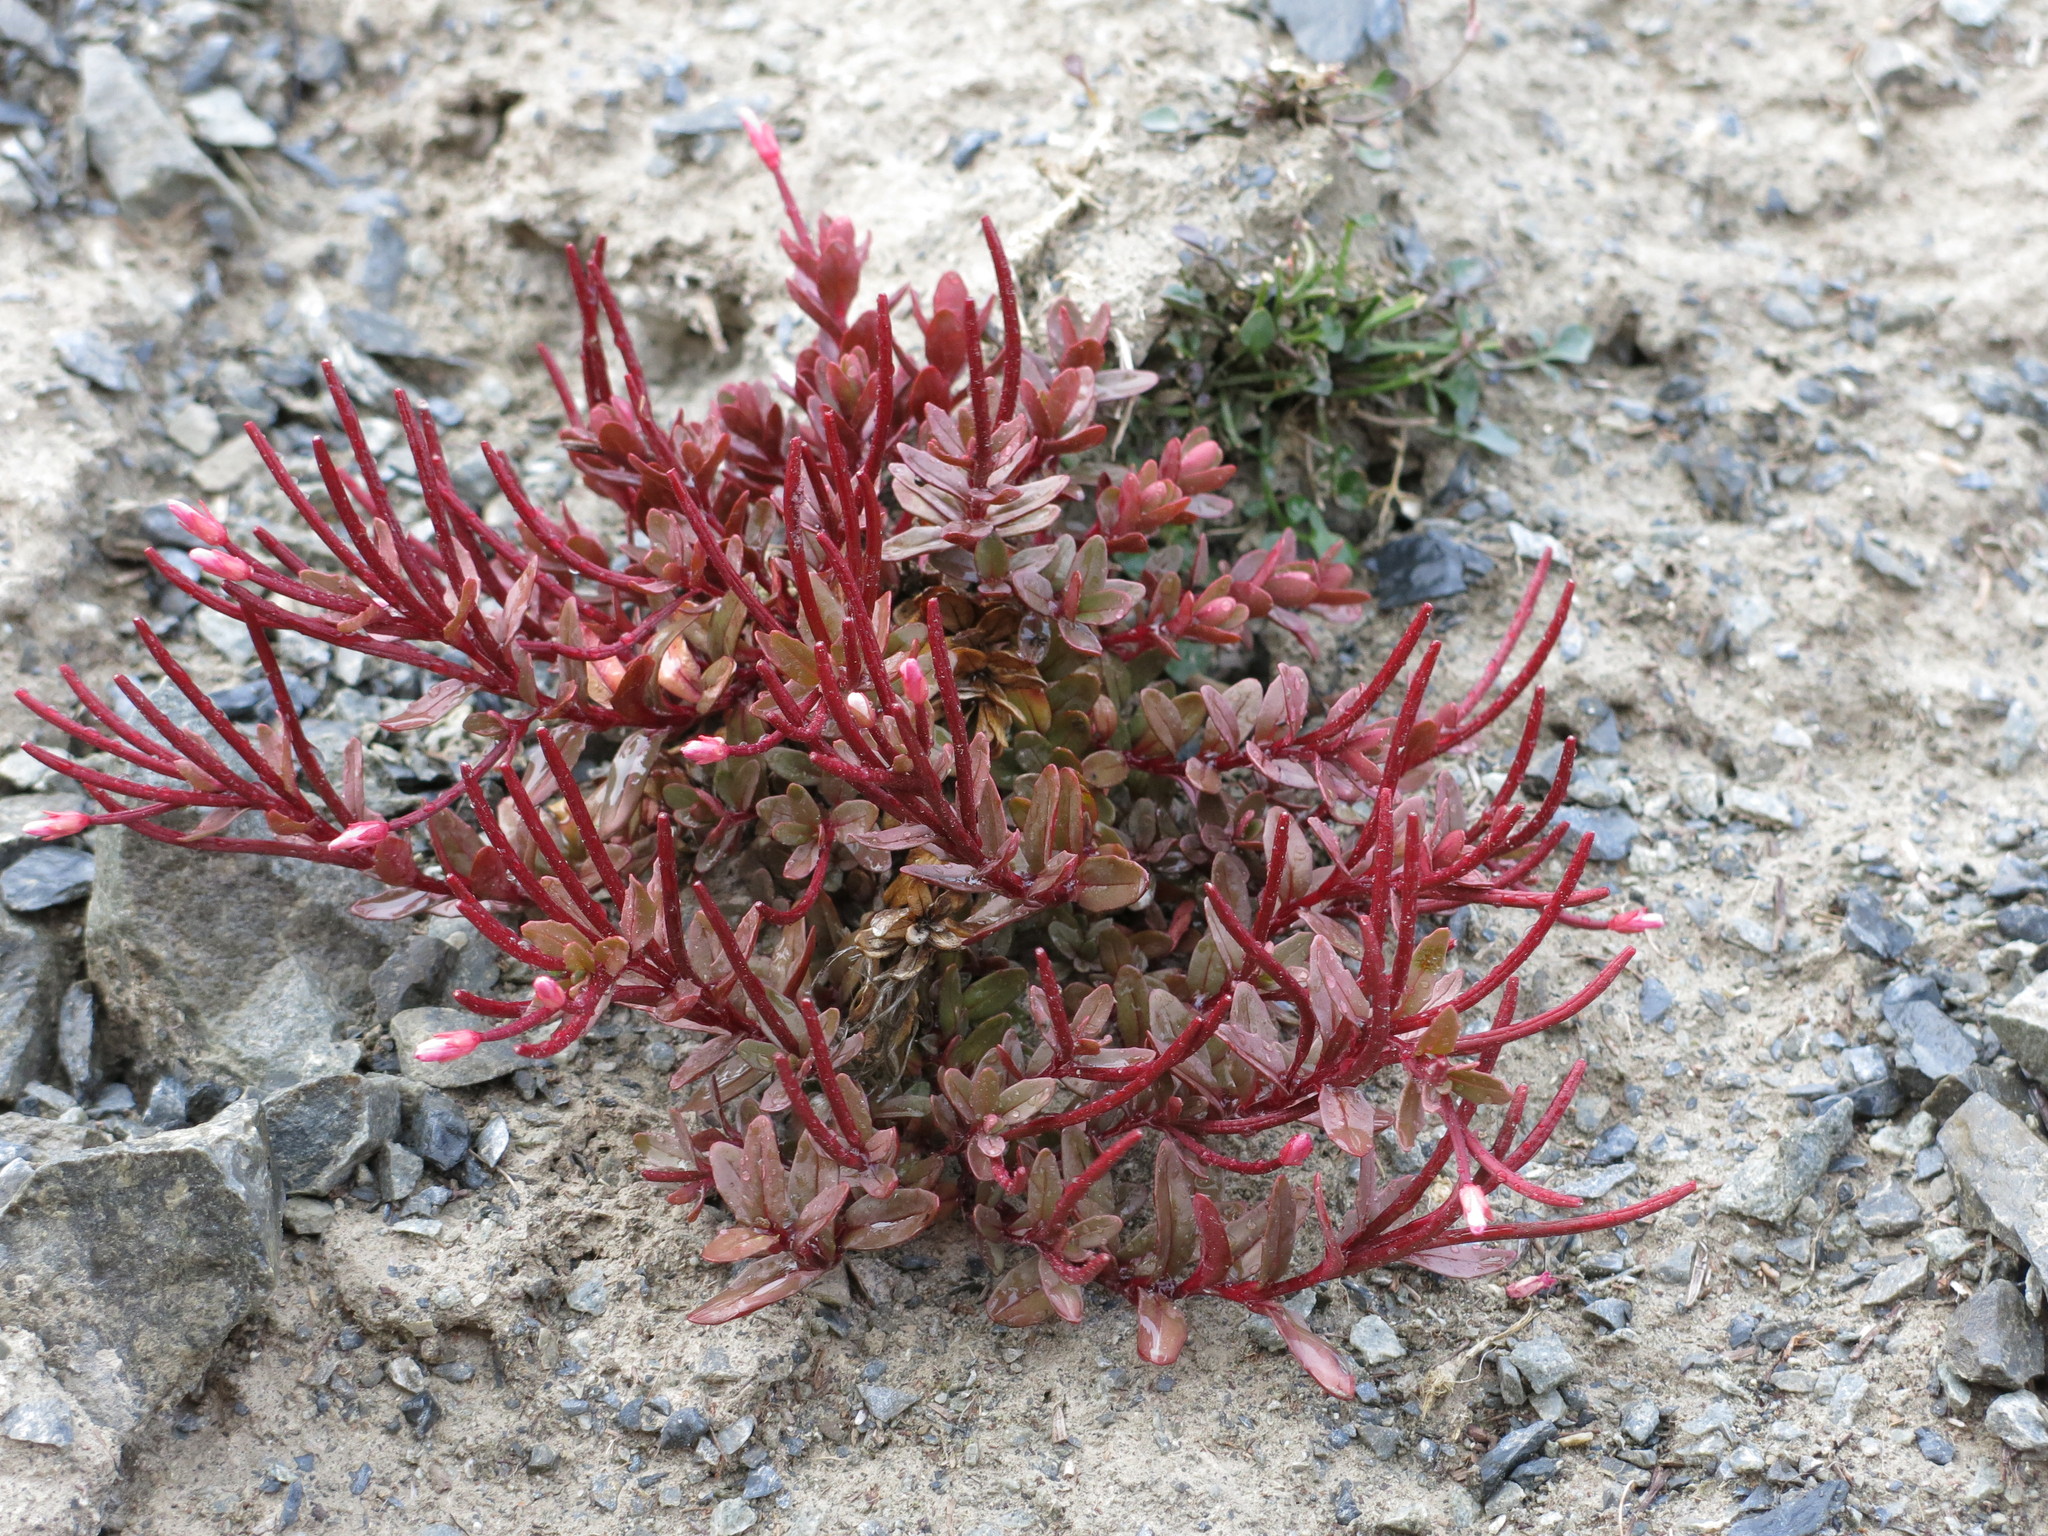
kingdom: Plantae
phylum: Tracheophyta
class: Magnoliopsida
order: Myrtales
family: Onagraceae
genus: Epilobium
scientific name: Epilobium porphyrium
